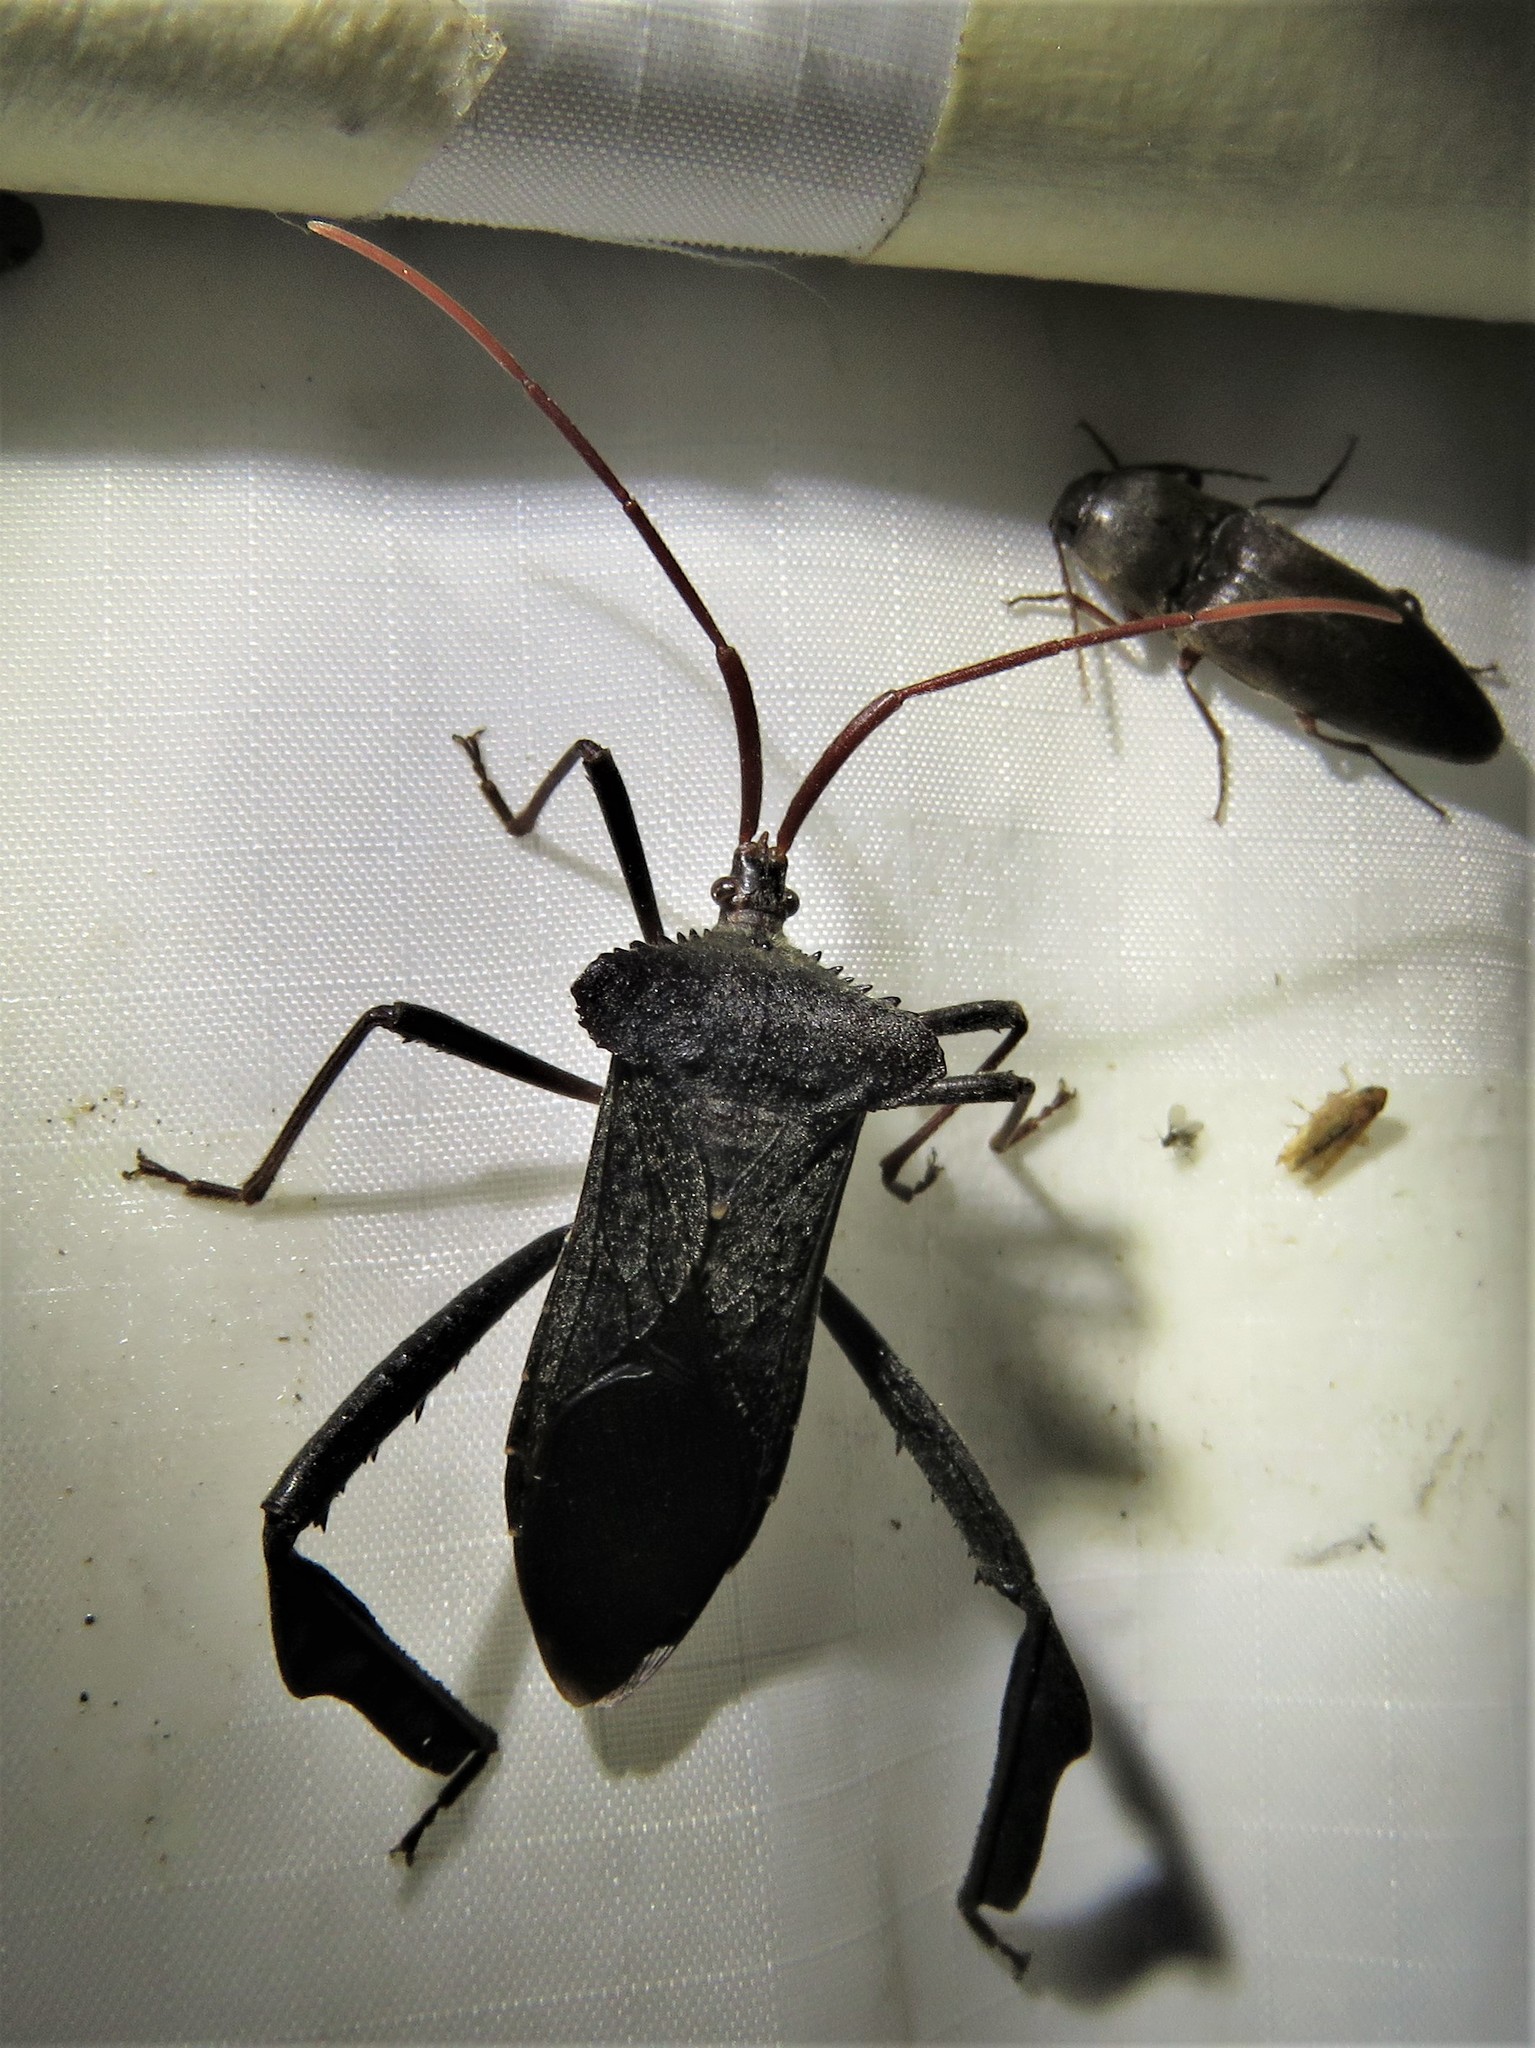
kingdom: Animalia
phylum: Arthropoda
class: Insecta
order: Hemiptera
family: Coreidae
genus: Acanthocephala
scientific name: Acanthocephala declivis
